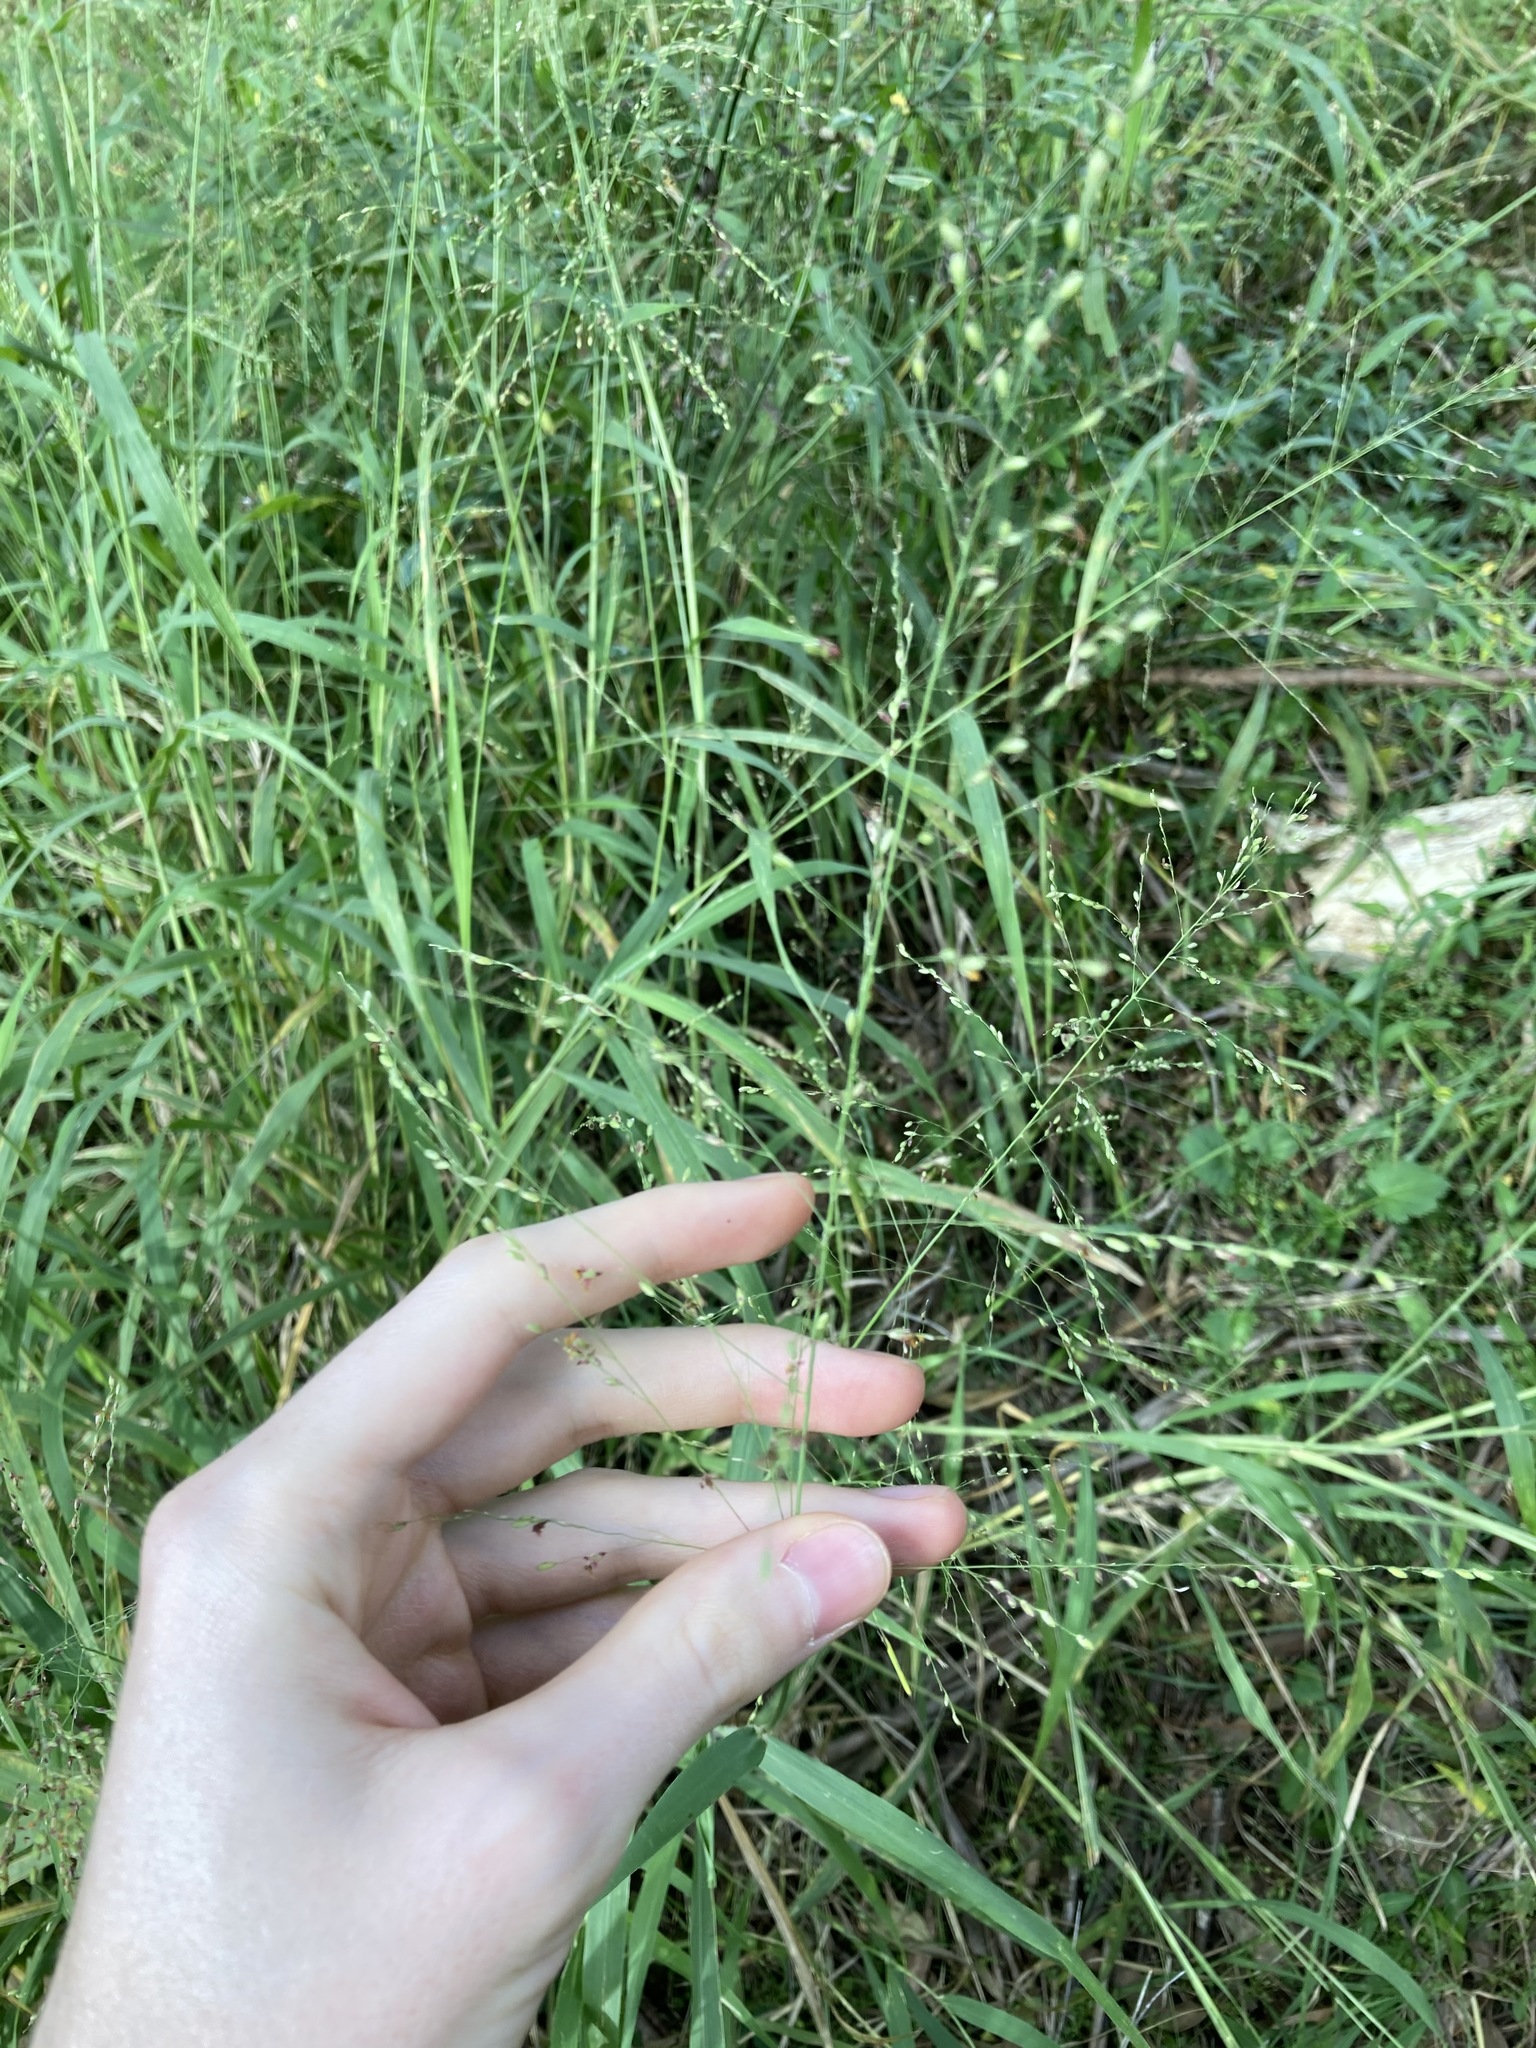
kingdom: Plantae
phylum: Tracheophyta
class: Liliopsida
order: Poales
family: Poaceae
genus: Megathyrsus
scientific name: Megathyrsus maximus
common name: Guineagrass
